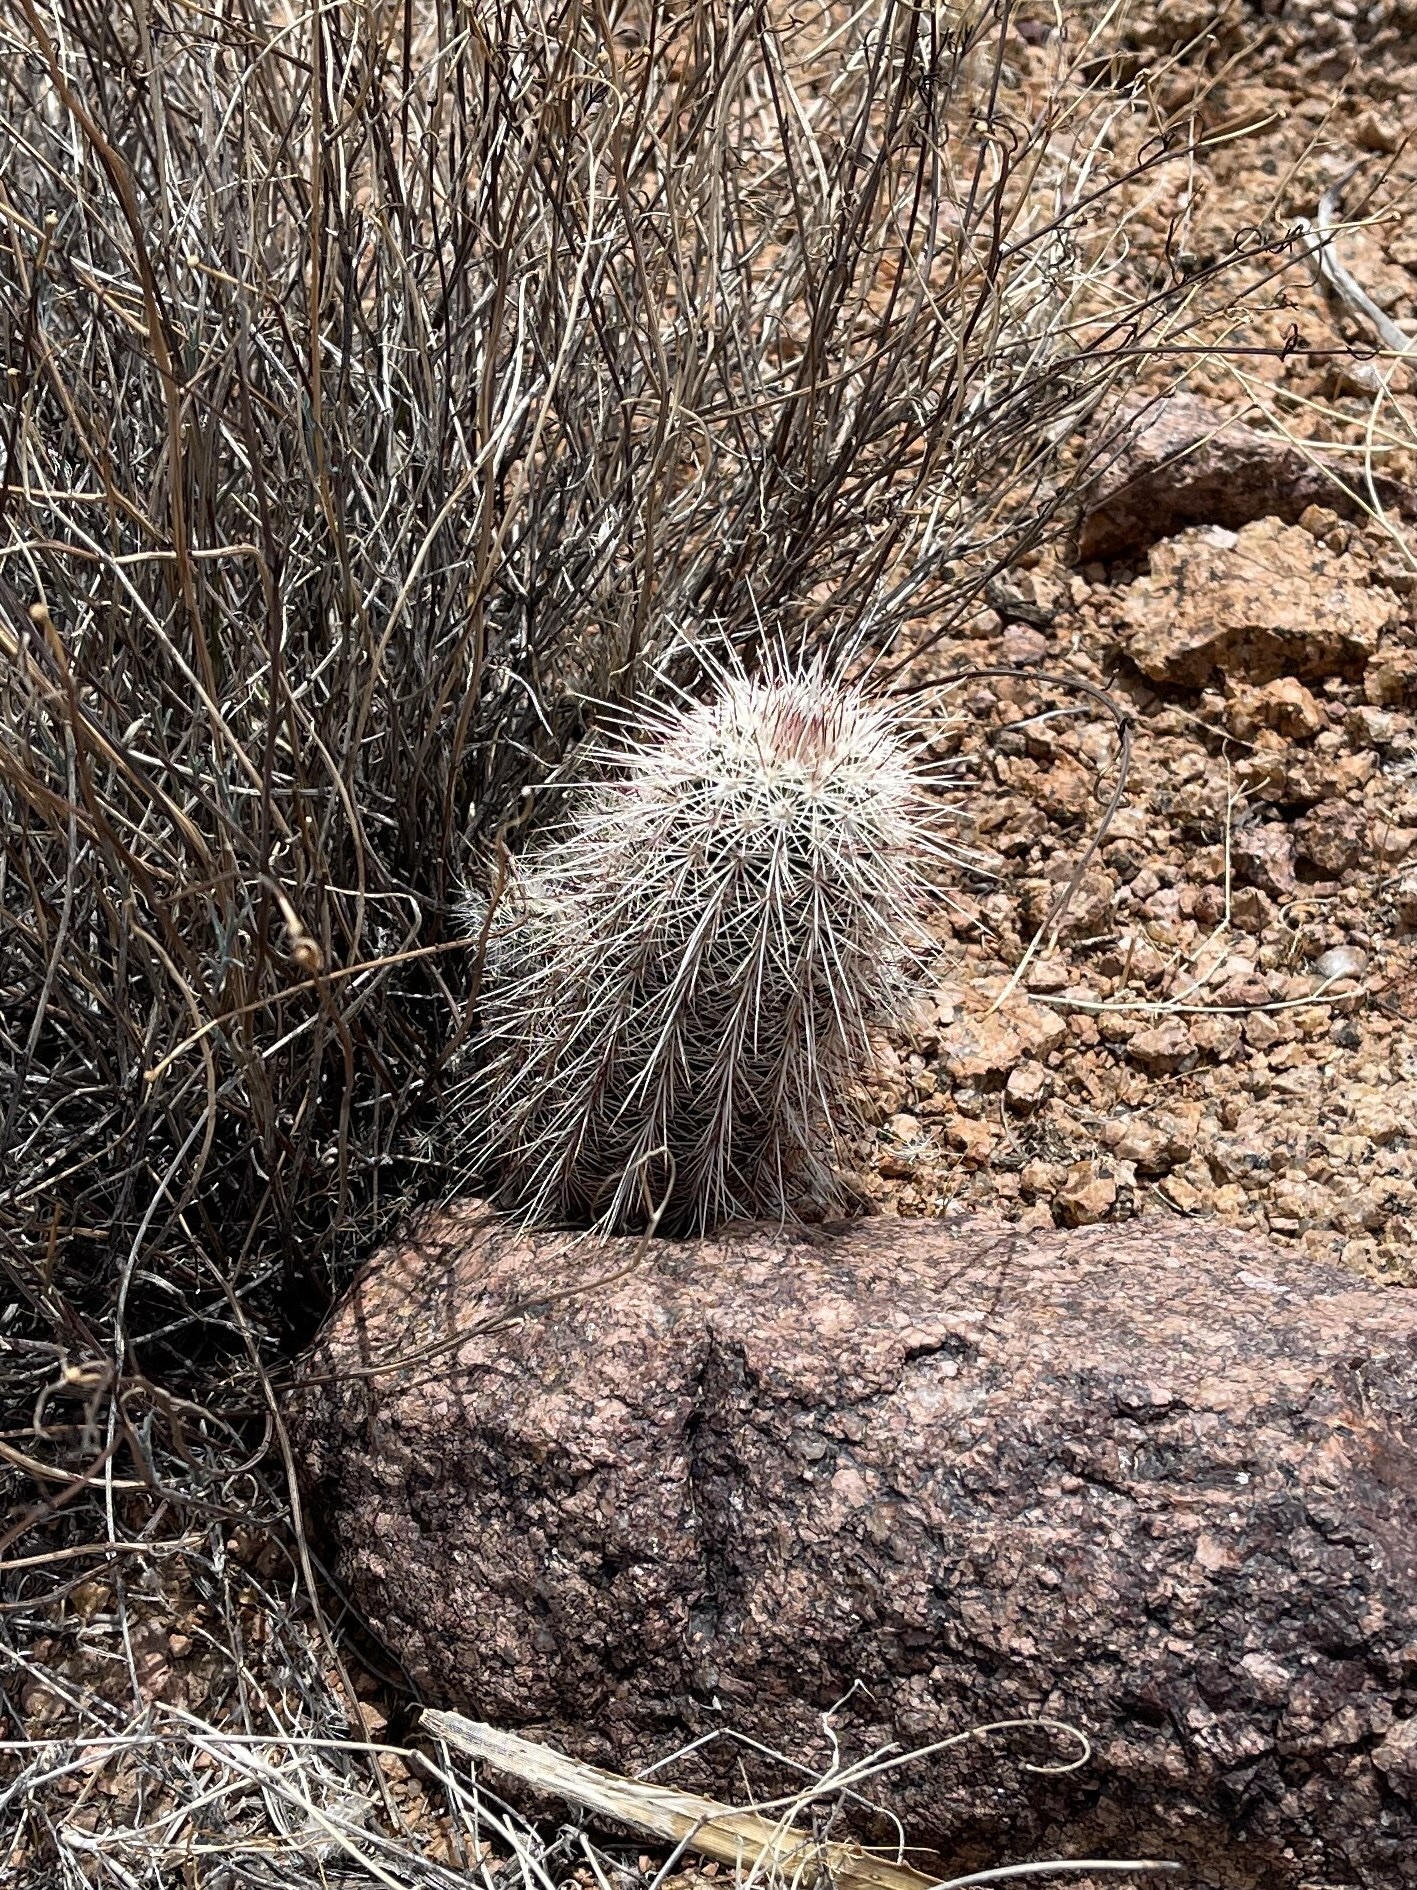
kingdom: Plantae
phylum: Tracheophyta
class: Magnoliopsida
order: Caryophyllales
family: Cactaceae
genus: Echinocereus
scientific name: Echinocereus viridiflorus
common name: Nylon hedgehog cactus
